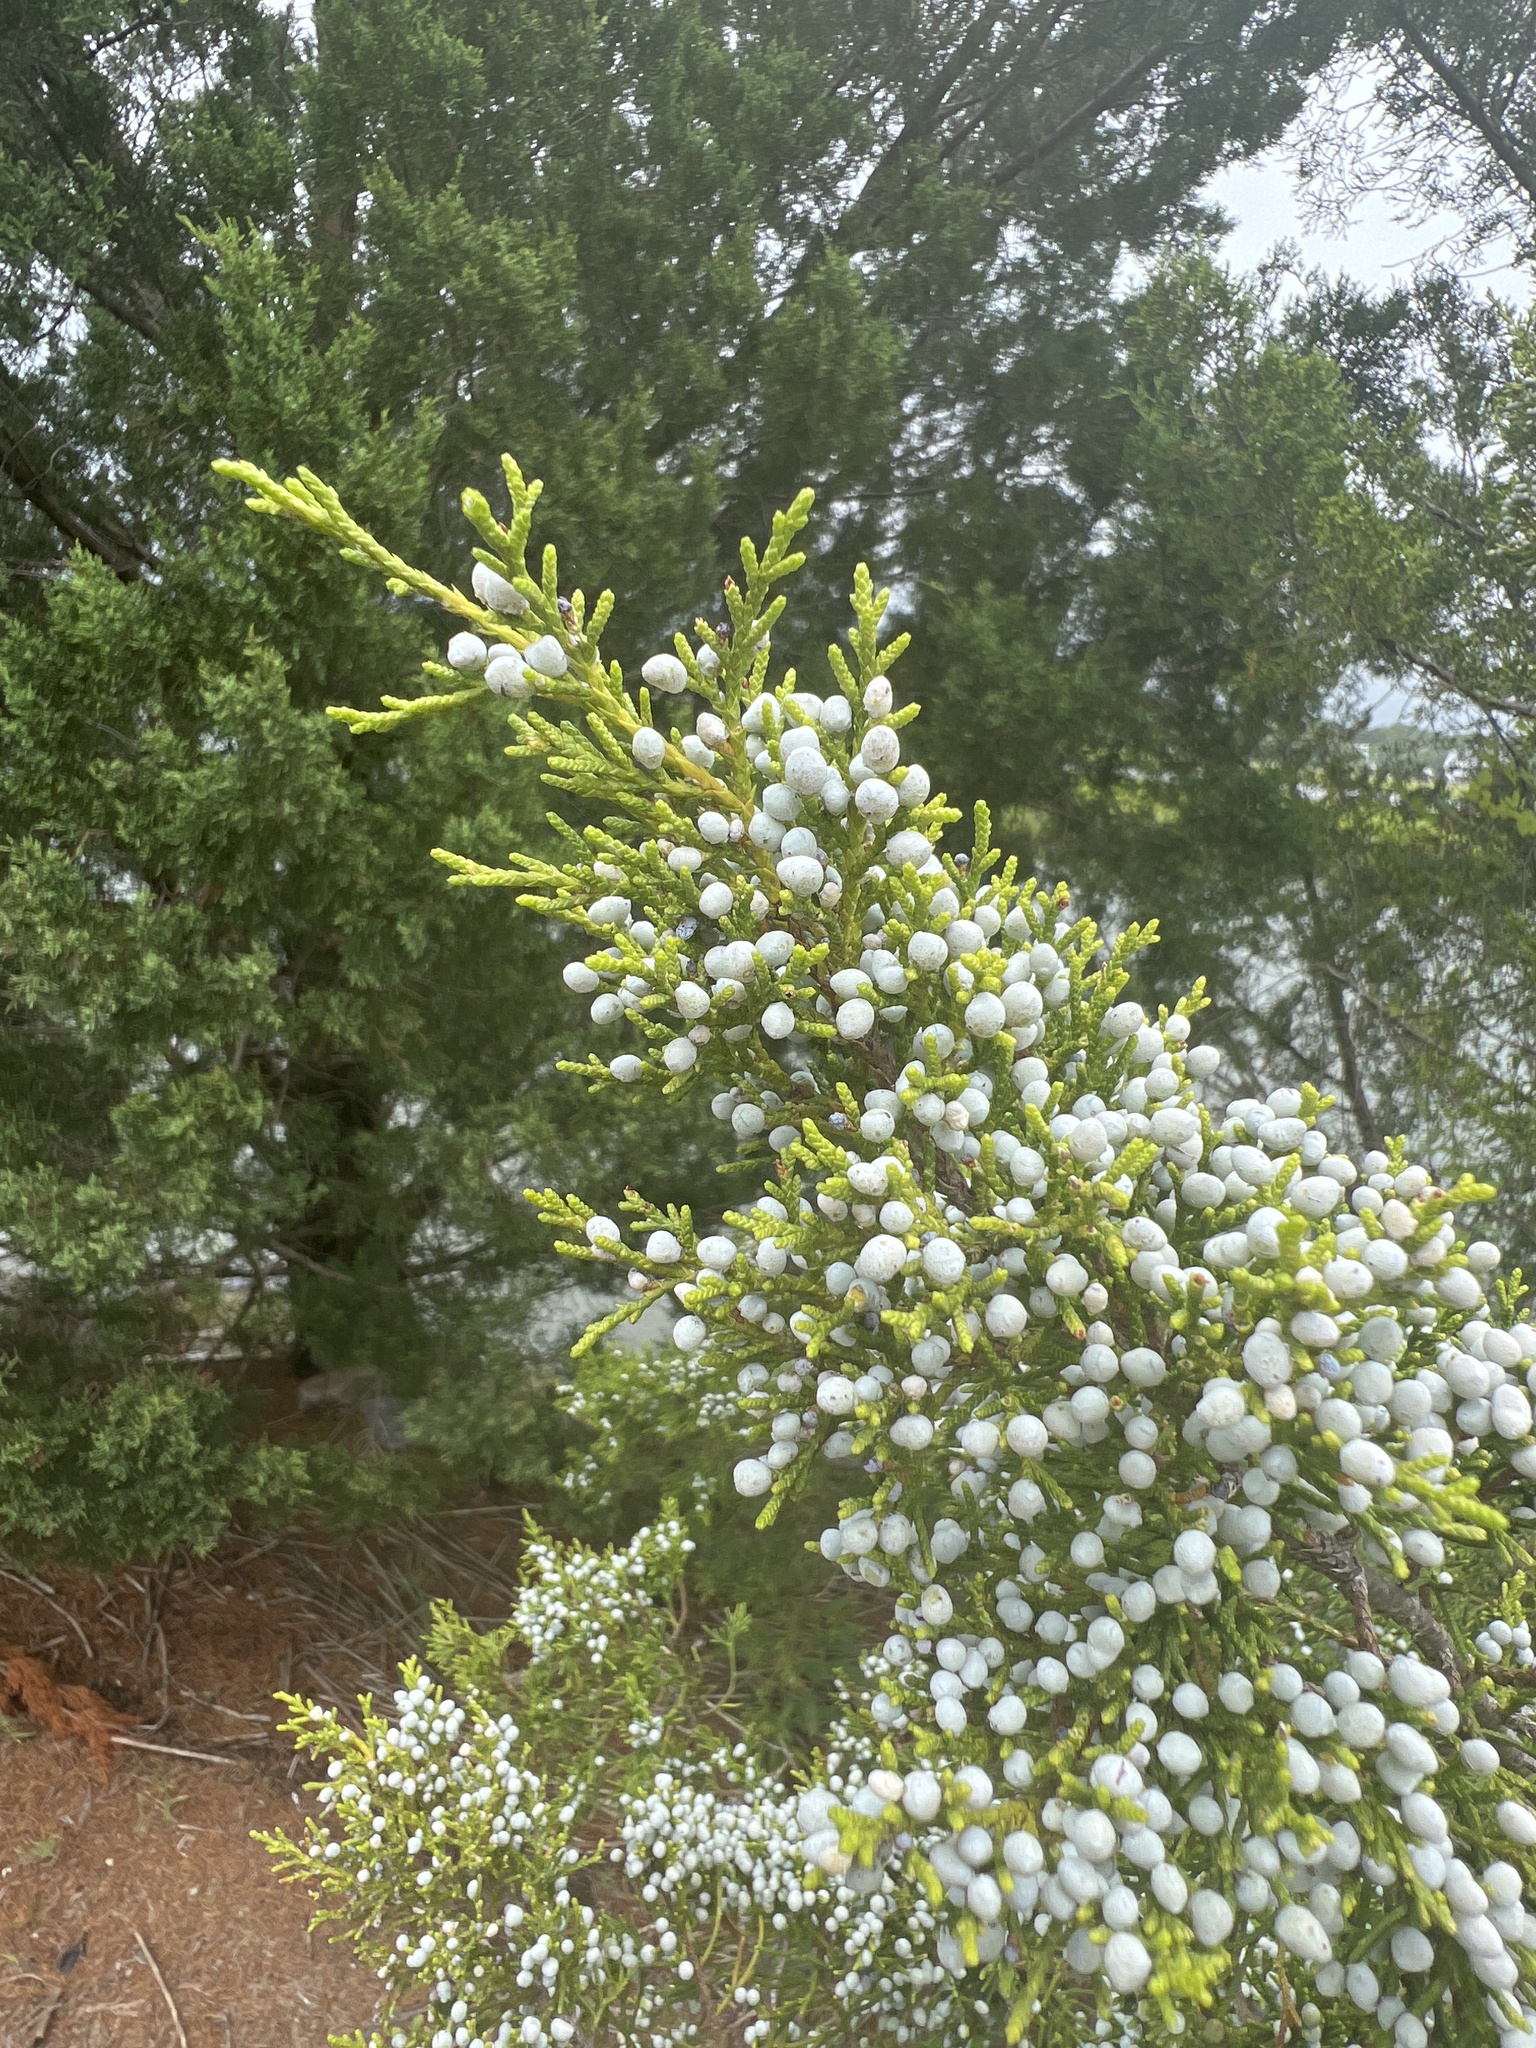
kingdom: Plantae
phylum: Tracheophyta
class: Pinopsida
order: Pinales
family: Cupressaceae
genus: Juniperus
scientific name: Juniperus virginiana
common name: Red juniper
